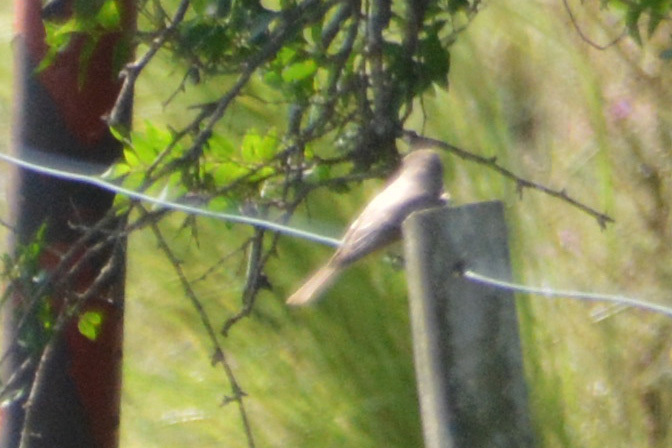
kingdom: Animalia
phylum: Chordata
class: Aves
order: Passeriformes
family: Tyrannidae
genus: Pyrocephalus
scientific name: Pyrocephalus rubinus
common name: Vermilion flycatcher
